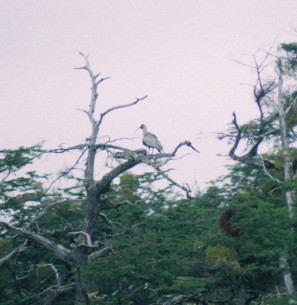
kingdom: Animalia
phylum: Chordata
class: Aves
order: Pelecaniformes
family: Threskiornithidae
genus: Theristicus
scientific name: Theristicus melanopis
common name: Black-faced ibis
